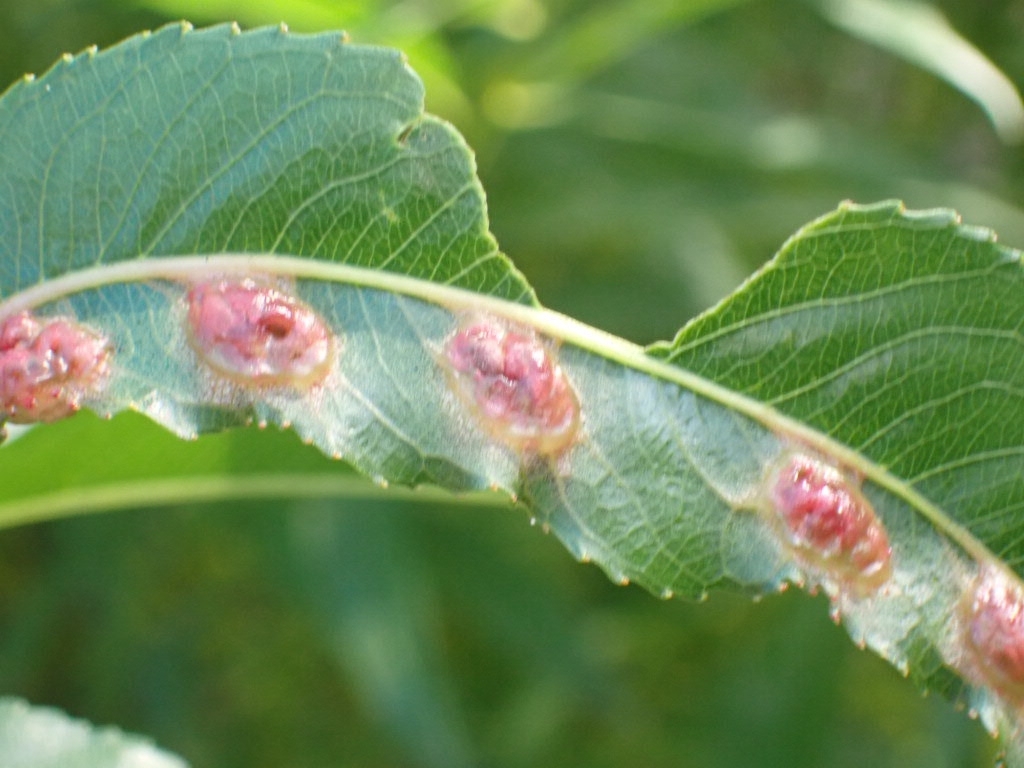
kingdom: Animalia
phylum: Arthropoda
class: Insecta
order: Hymenoptera
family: Tenthredinidae
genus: Pontania
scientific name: Pontania proxima
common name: Common sawfly
